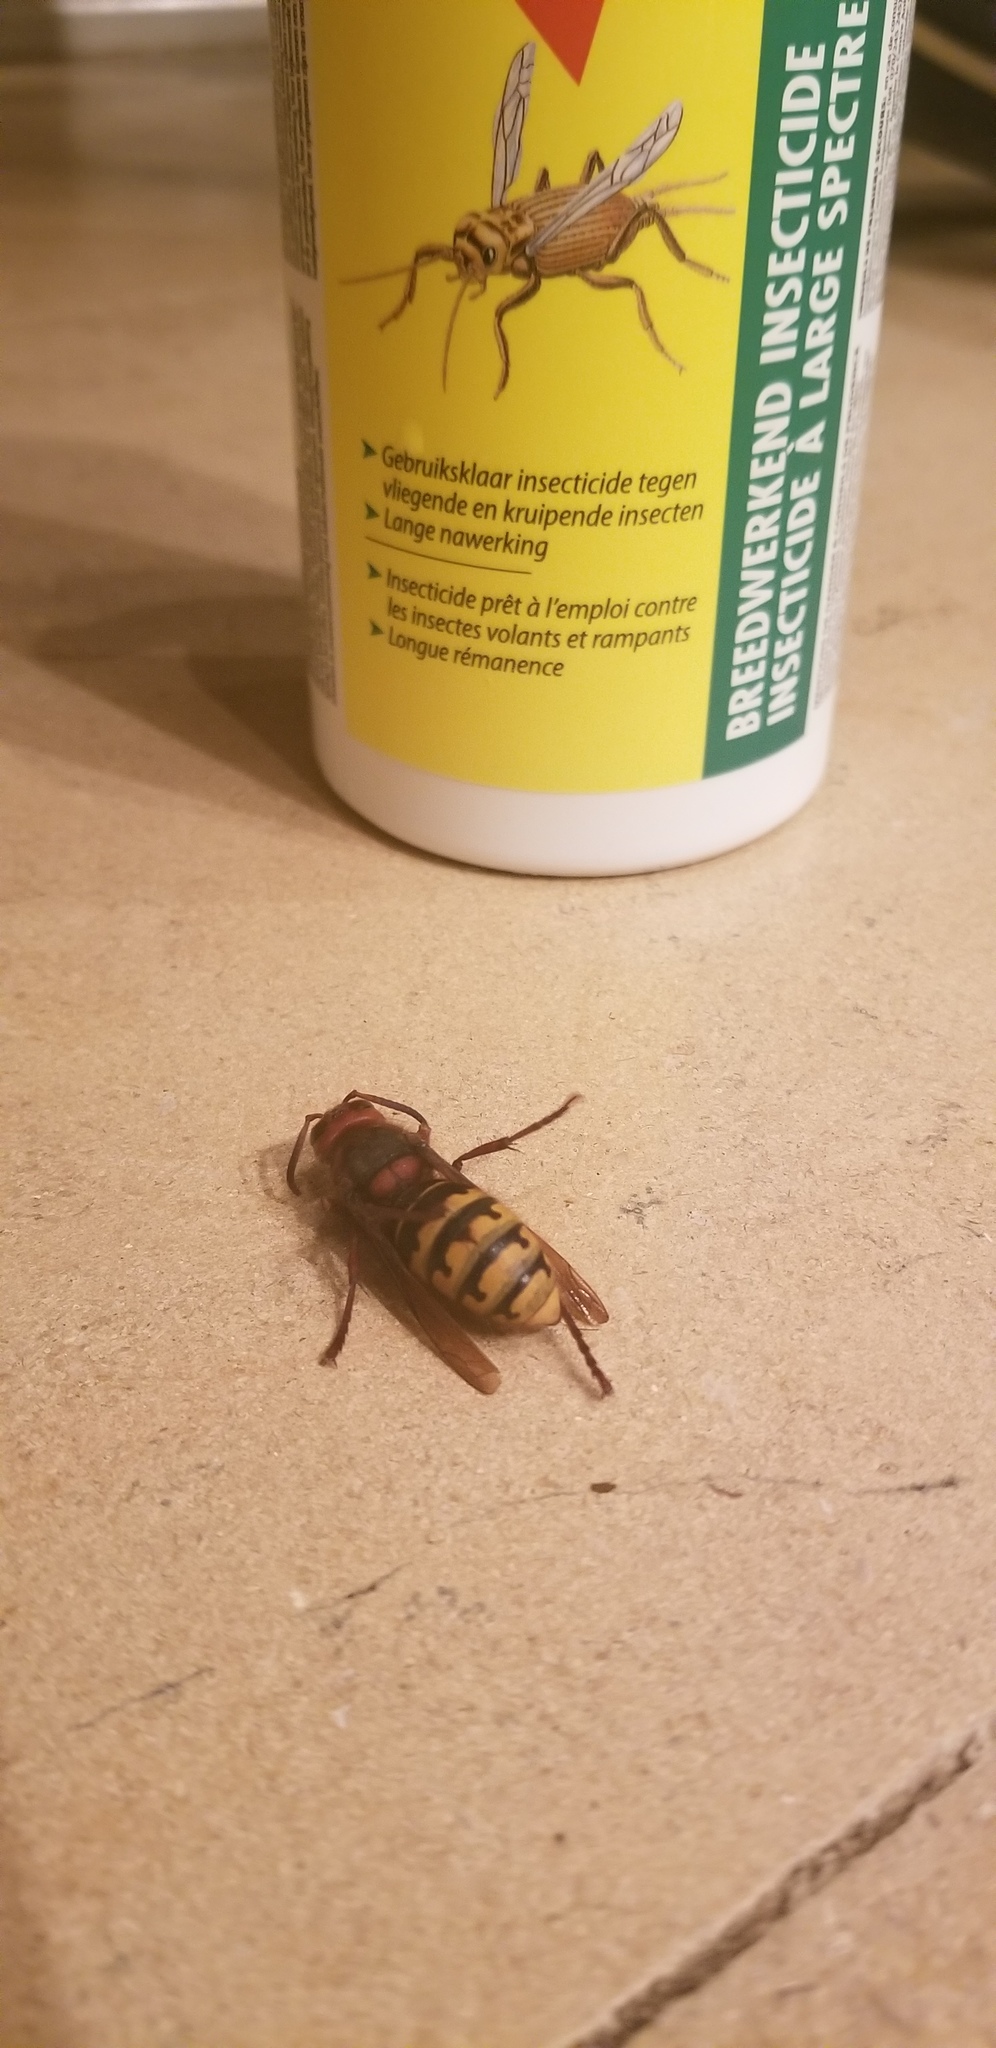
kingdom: Animalia
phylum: Arthropoda
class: Insecta
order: Hymenoptera
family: Vespidae
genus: Vespa
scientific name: Vespa crabro
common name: Hornet
